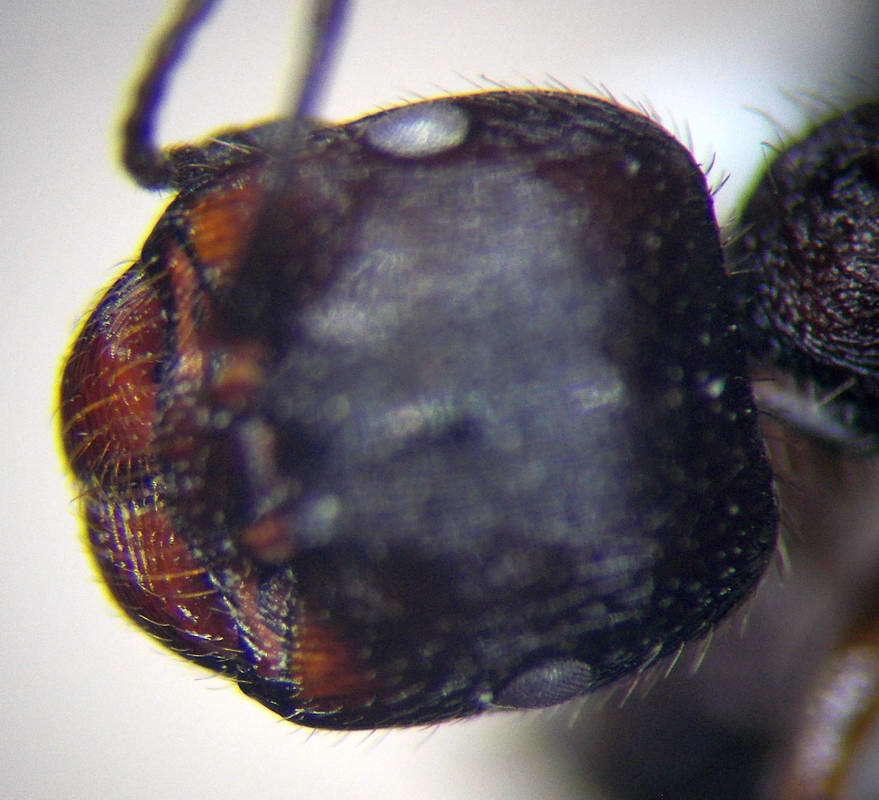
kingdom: Animalia
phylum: Arthropoda
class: Insecta
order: Hymenoptera
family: Formicidae
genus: Messor
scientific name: Messor structor
